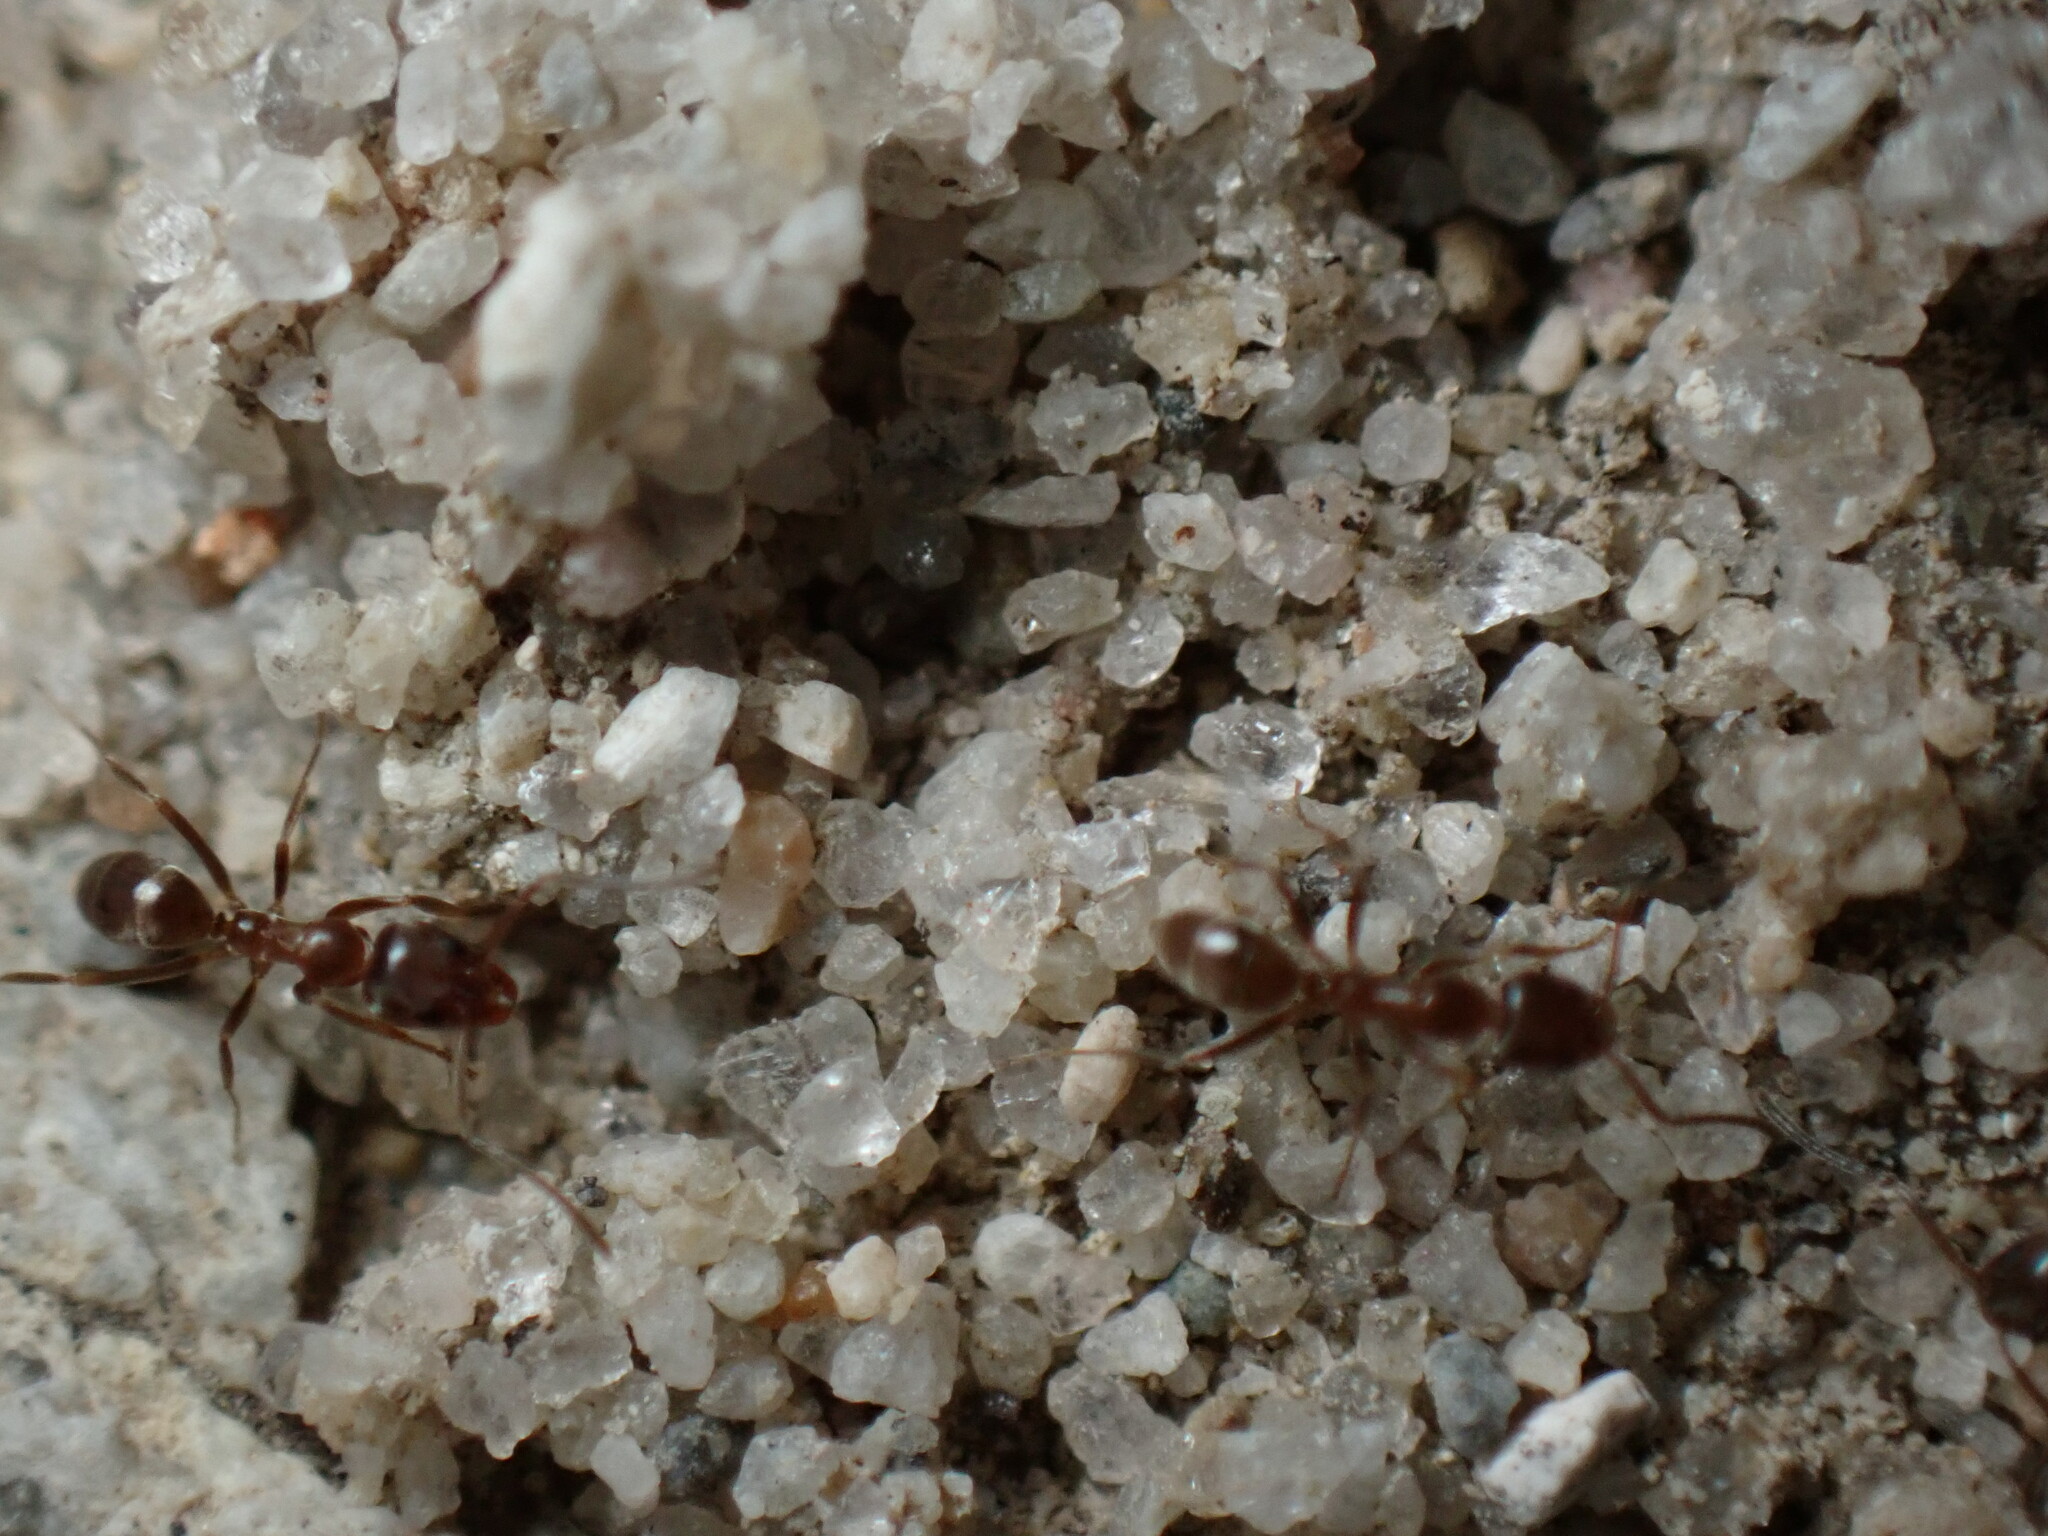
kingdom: Animalia
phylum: Arthropoda
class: Insecta
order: Hymenoptera
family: Formicidae
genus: Linepithema
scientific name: Linepithema humile
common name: Argentine ant
